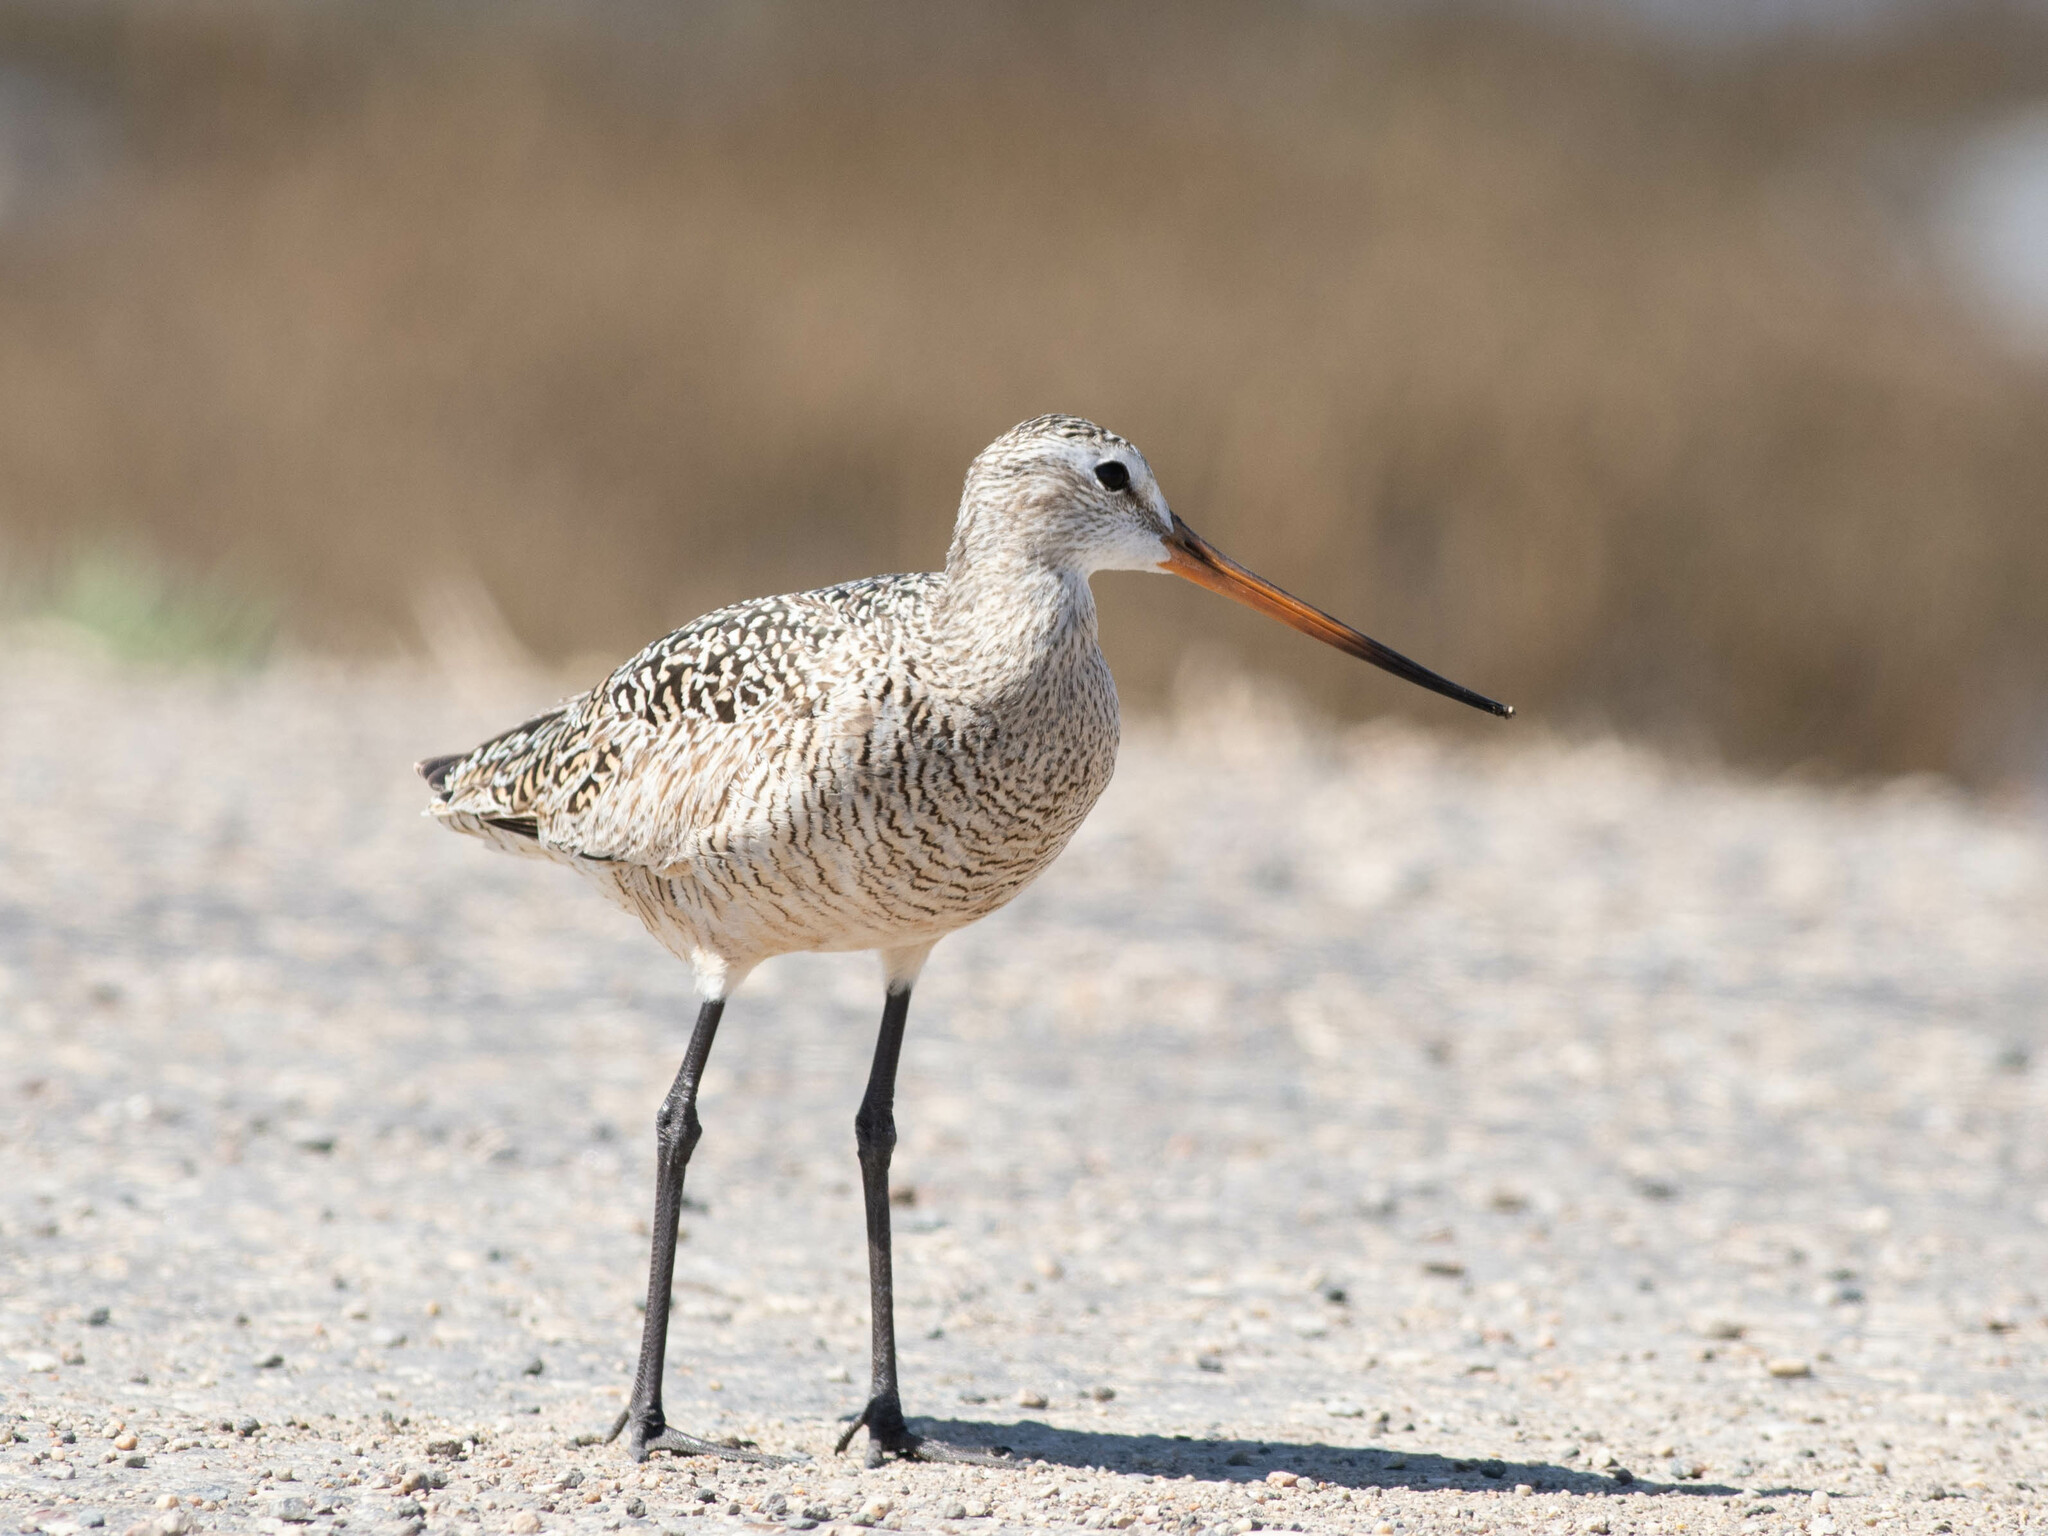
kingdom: Animalia
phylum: Chordata
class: Aves
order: Charadriiformes
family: Scolopacidae
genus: Limosa
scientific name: Limosa fedoa
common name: Marbled godwit
